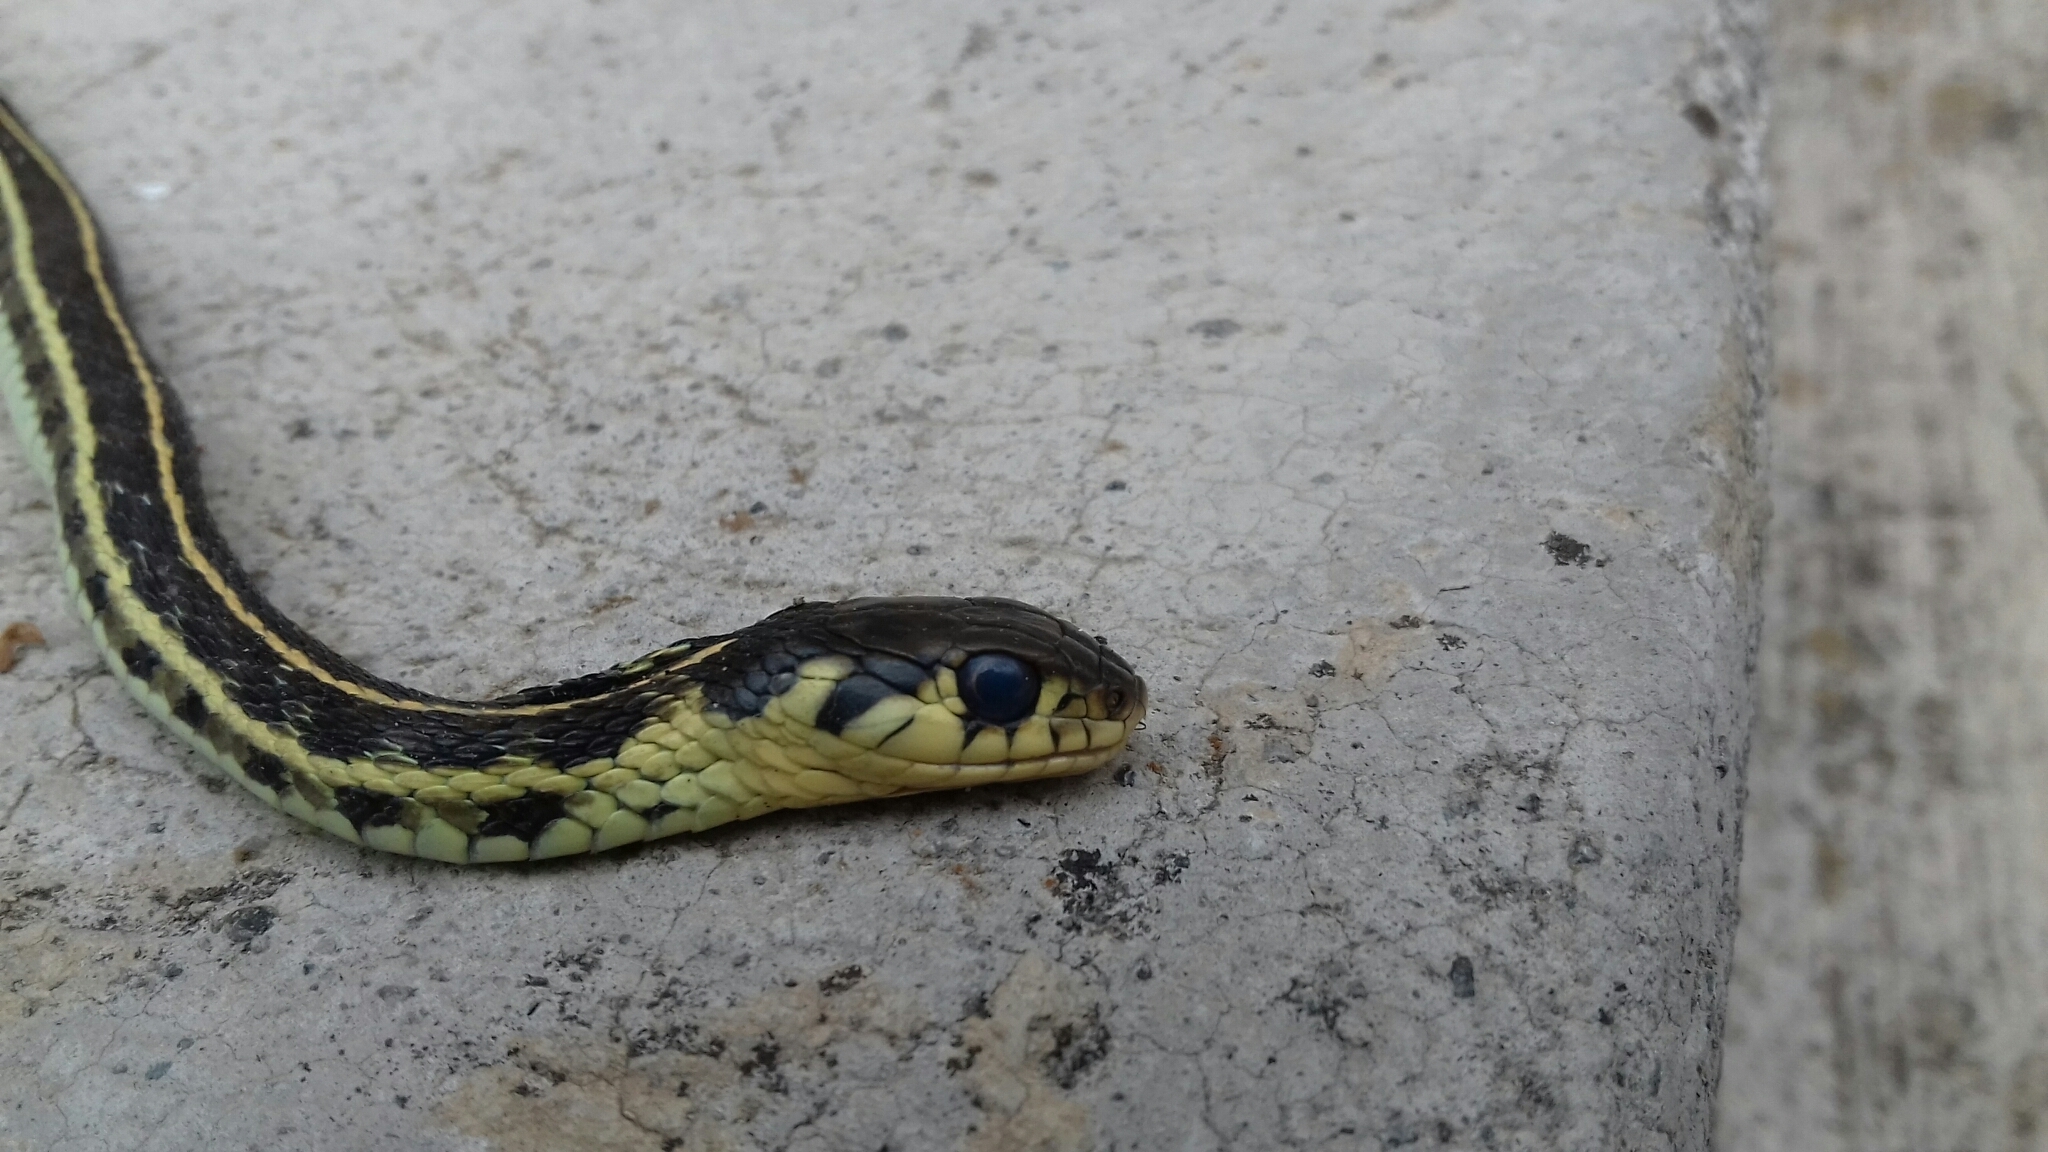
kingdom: Animalia
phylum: Chordata
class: Squamata
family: Colubridae
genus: Thamnophis
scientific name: Thamnophis pulchrilatus
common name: Yellow-throated gartersnake
